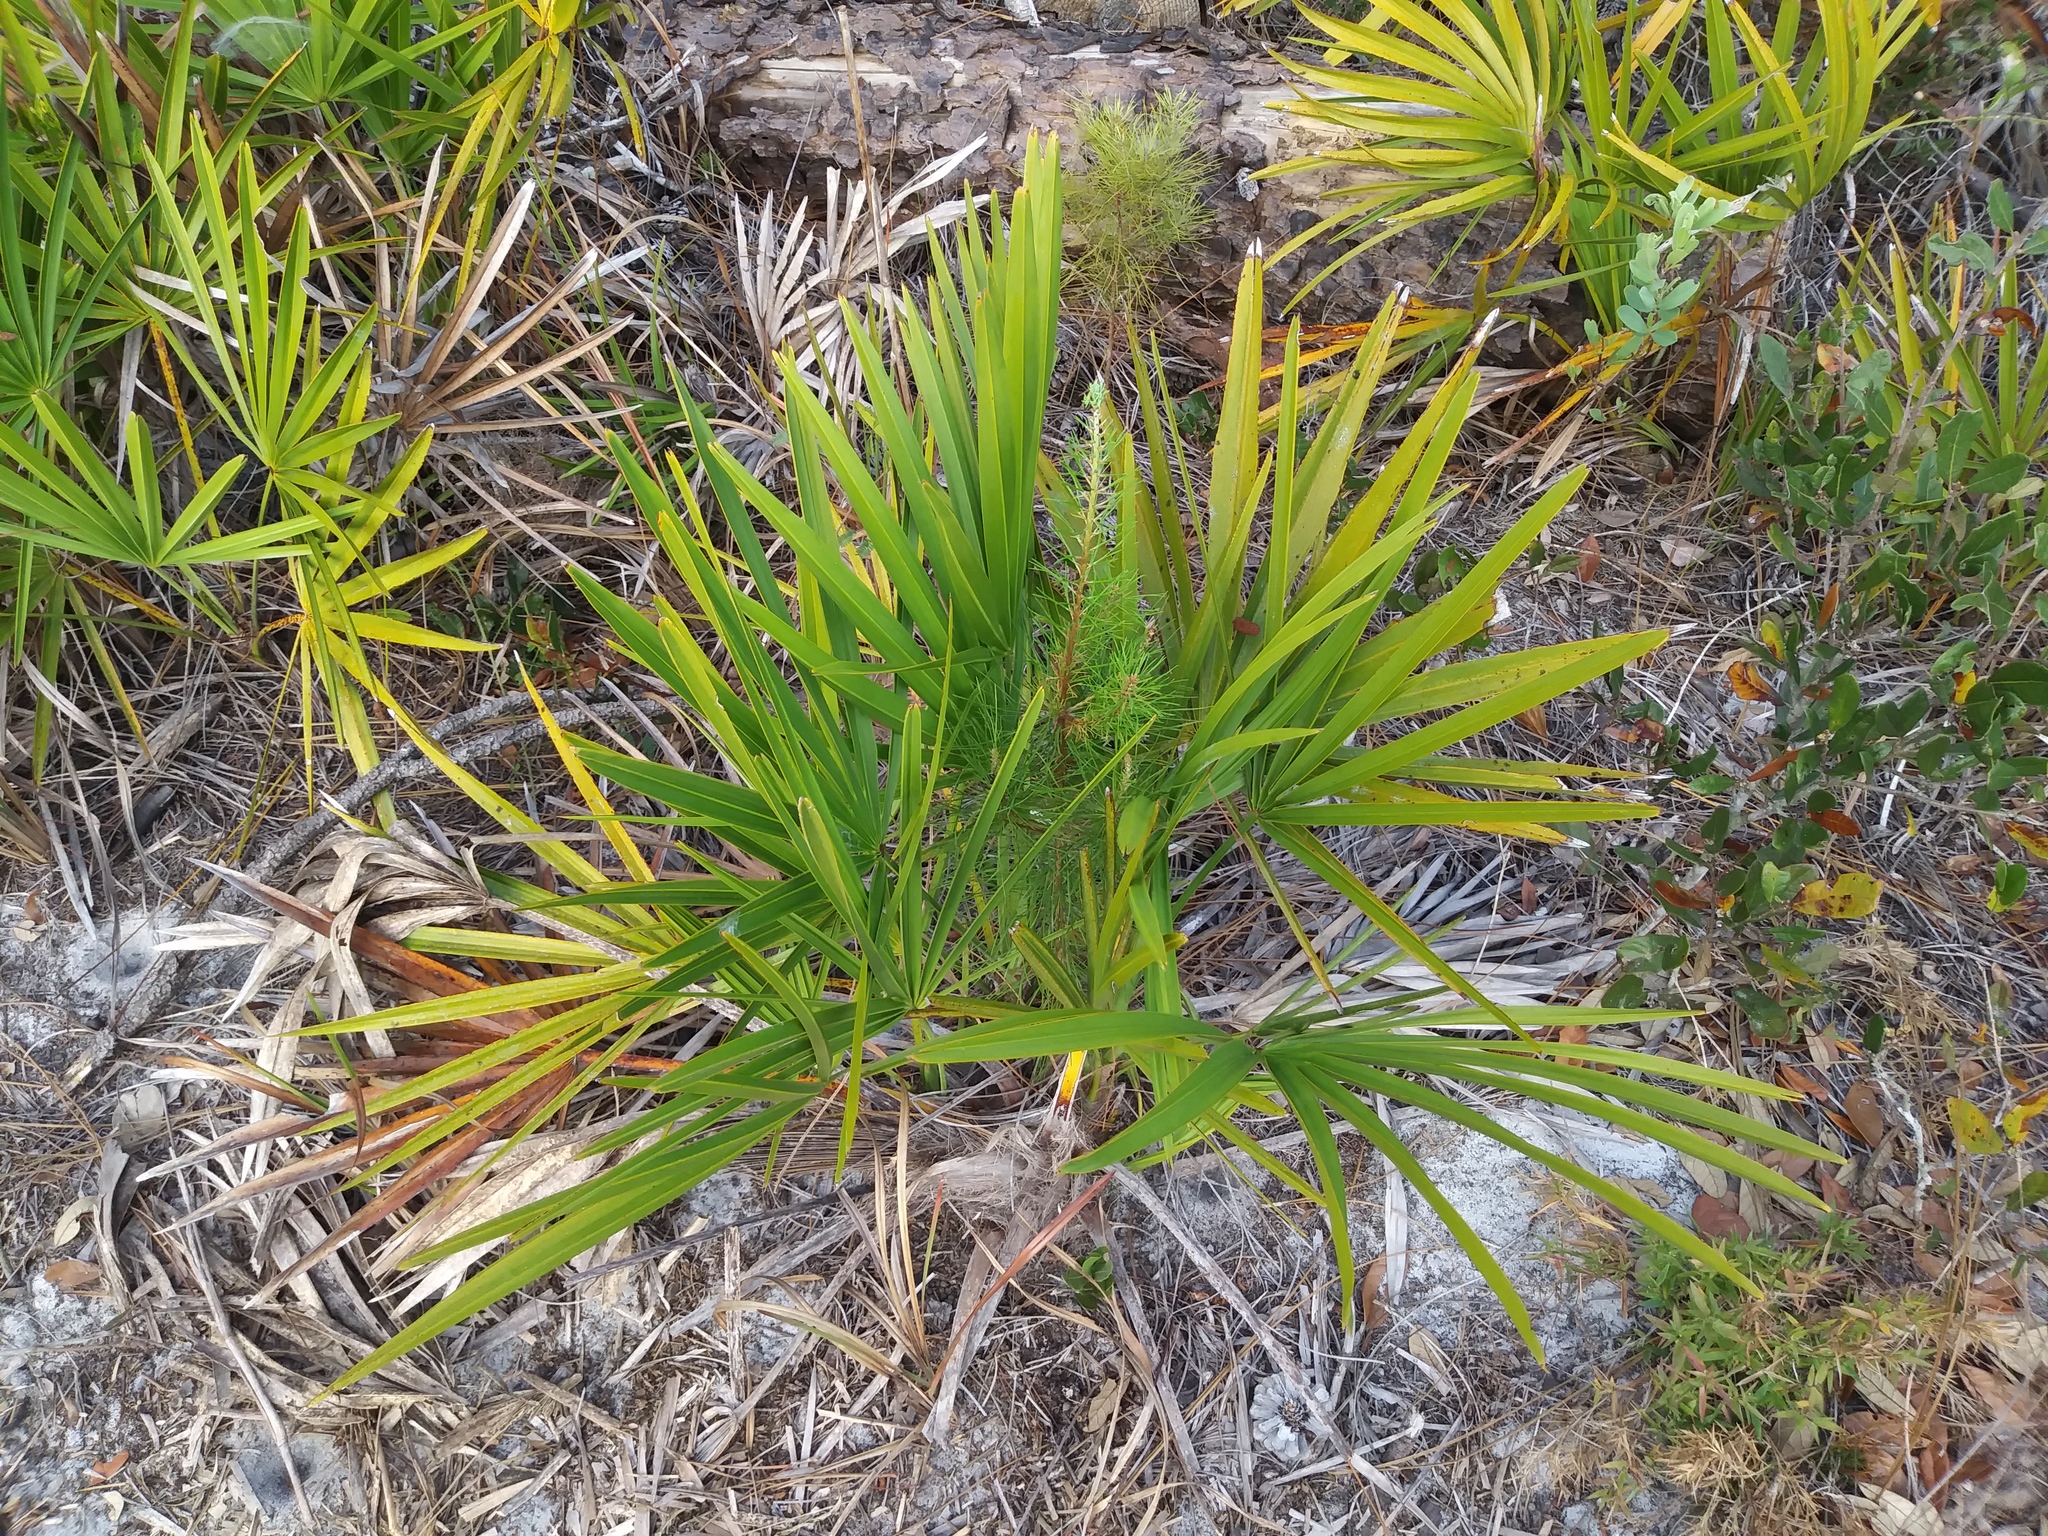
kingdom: Plantae
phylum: Tracheophyta
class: Pinopsida
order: Pinales
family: Pinaceae
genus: Pinus
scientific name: Pinus clausa
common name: Sand pine
